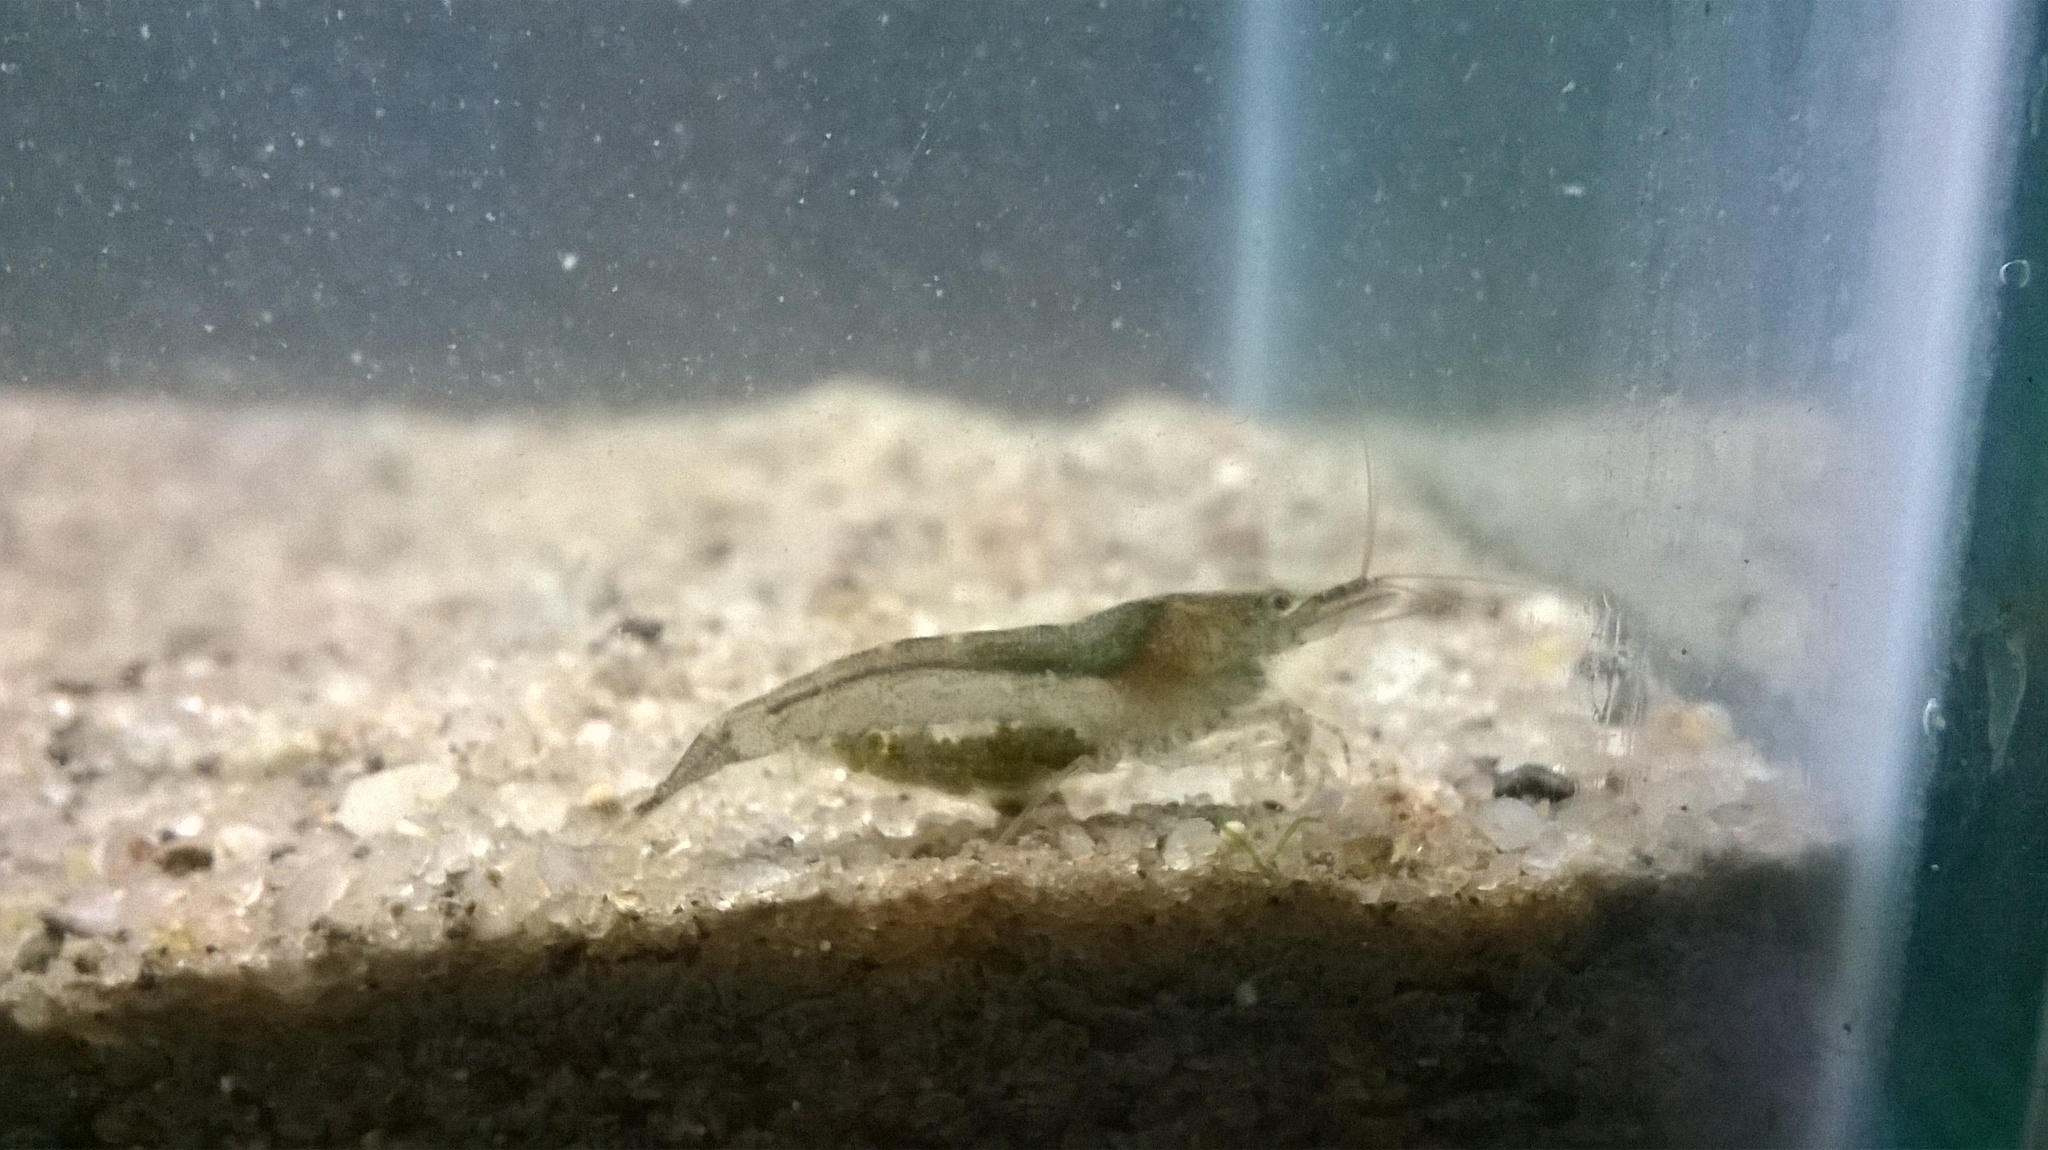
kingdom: Animalia
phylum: Arthropoda
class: Malacostraca
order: Decapoda
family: Atyidae
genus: Caridina
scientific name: Caridina babaulti
